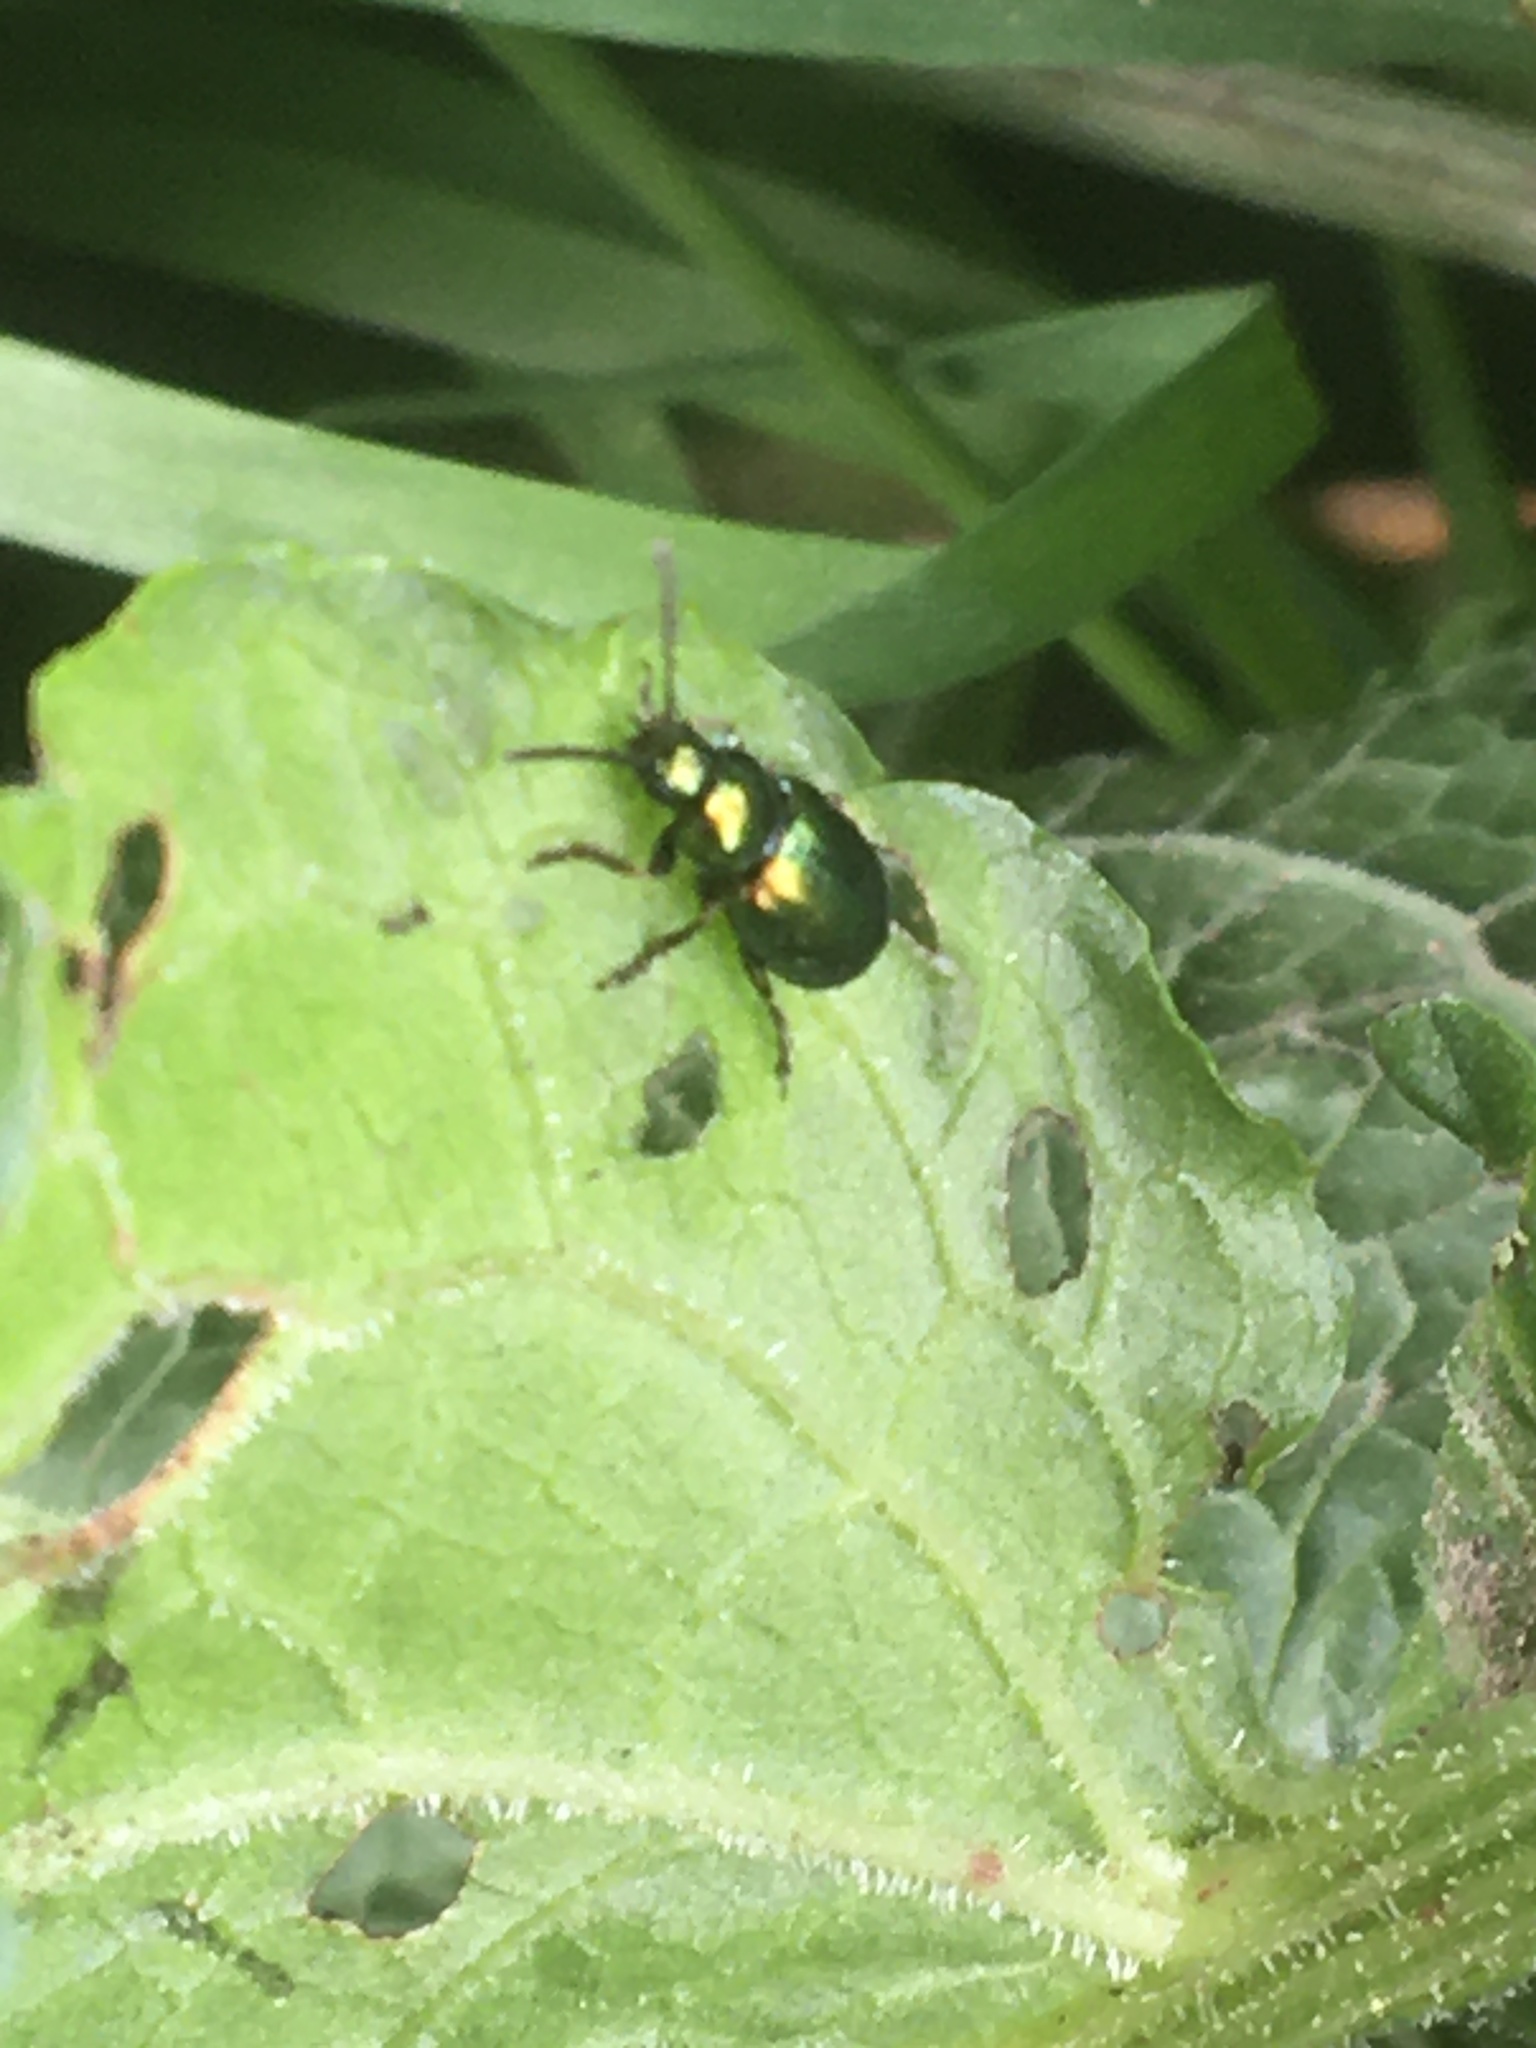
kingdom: Animalia
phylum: Arthropoda
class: Insecta
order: Coleoptera
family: Chrysomelidae
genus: Gastrophysa
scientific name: Gastrophysa viridula
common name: Green dock beetle
